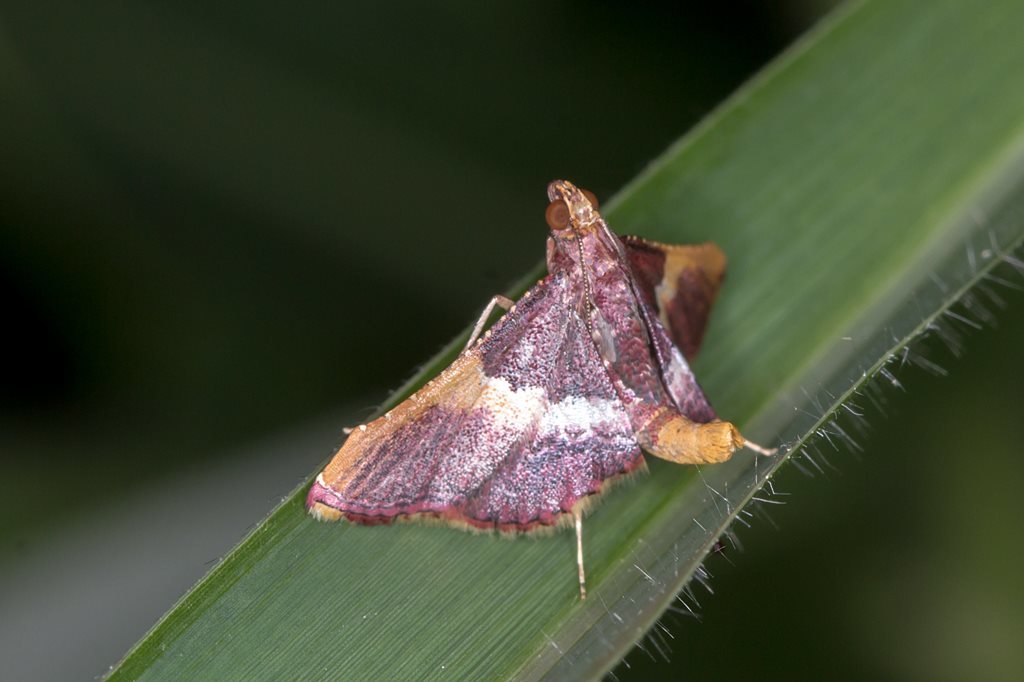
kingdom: Animalia
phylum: Arthropoda
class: Insecta
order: Lepidoptera
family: Pyralidae
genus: Endotricha
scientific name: Endotricha mesenterialis
